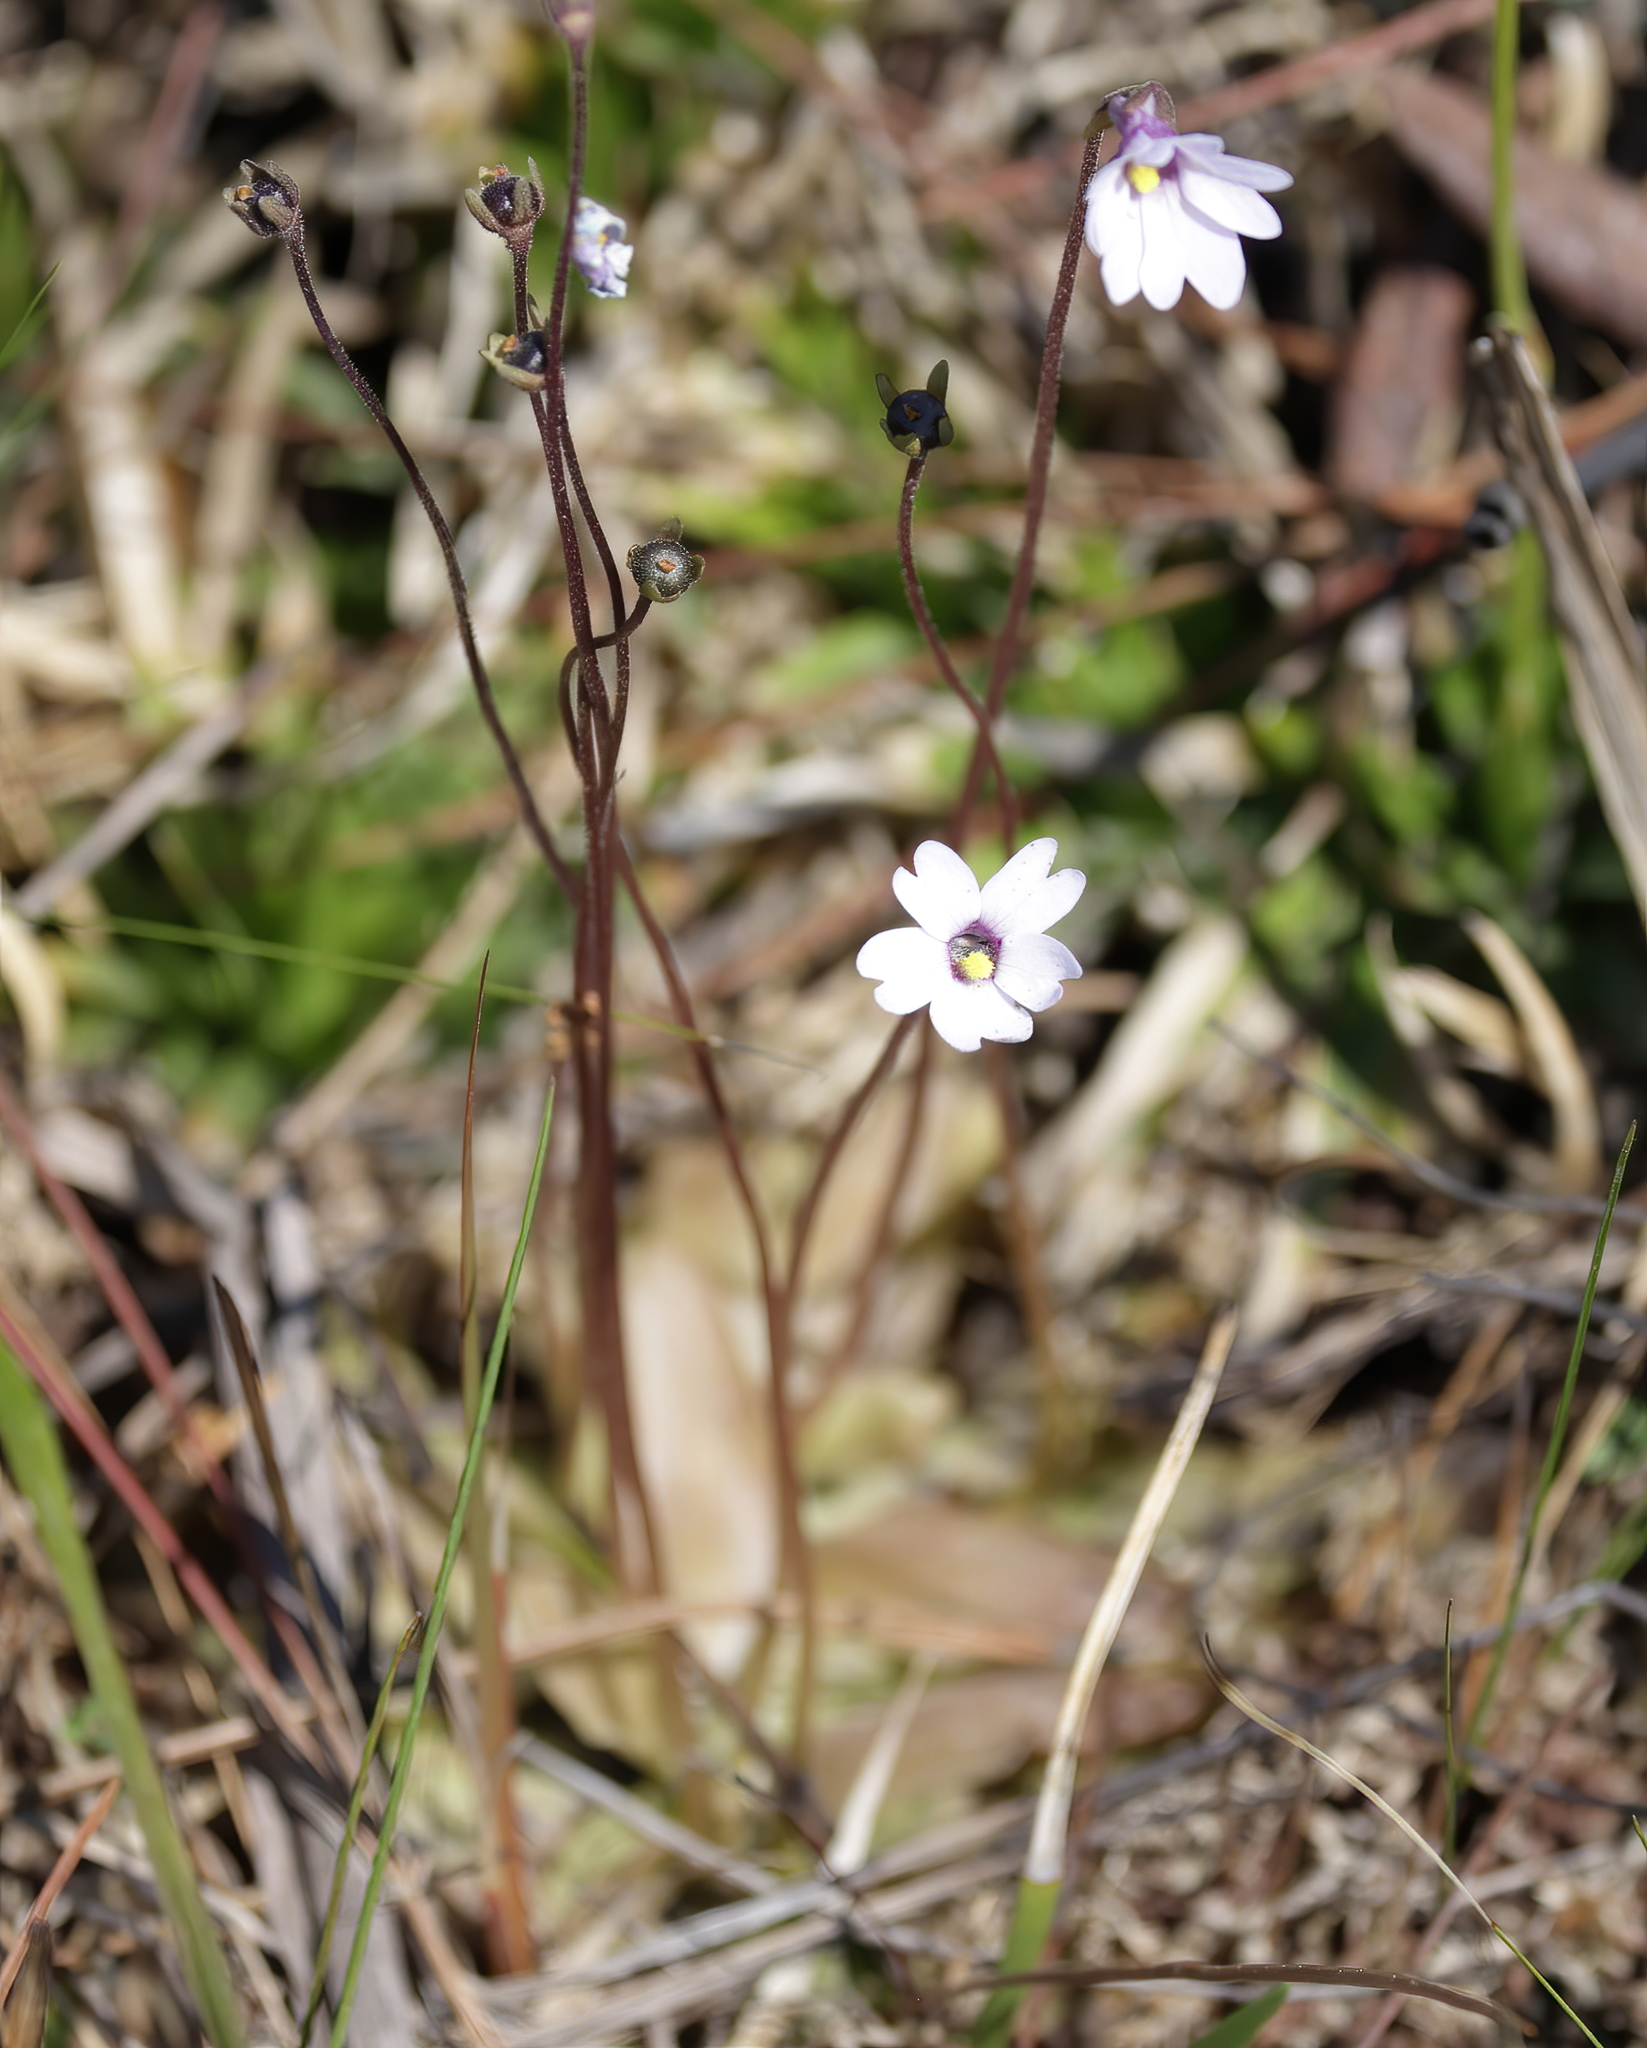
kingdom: Plantae
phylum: Tracheophyta
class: Magnoliopsida
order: Lamiales
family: Lentibulariaceae
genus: Pinguicula
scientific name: Pinguicula planifolia
